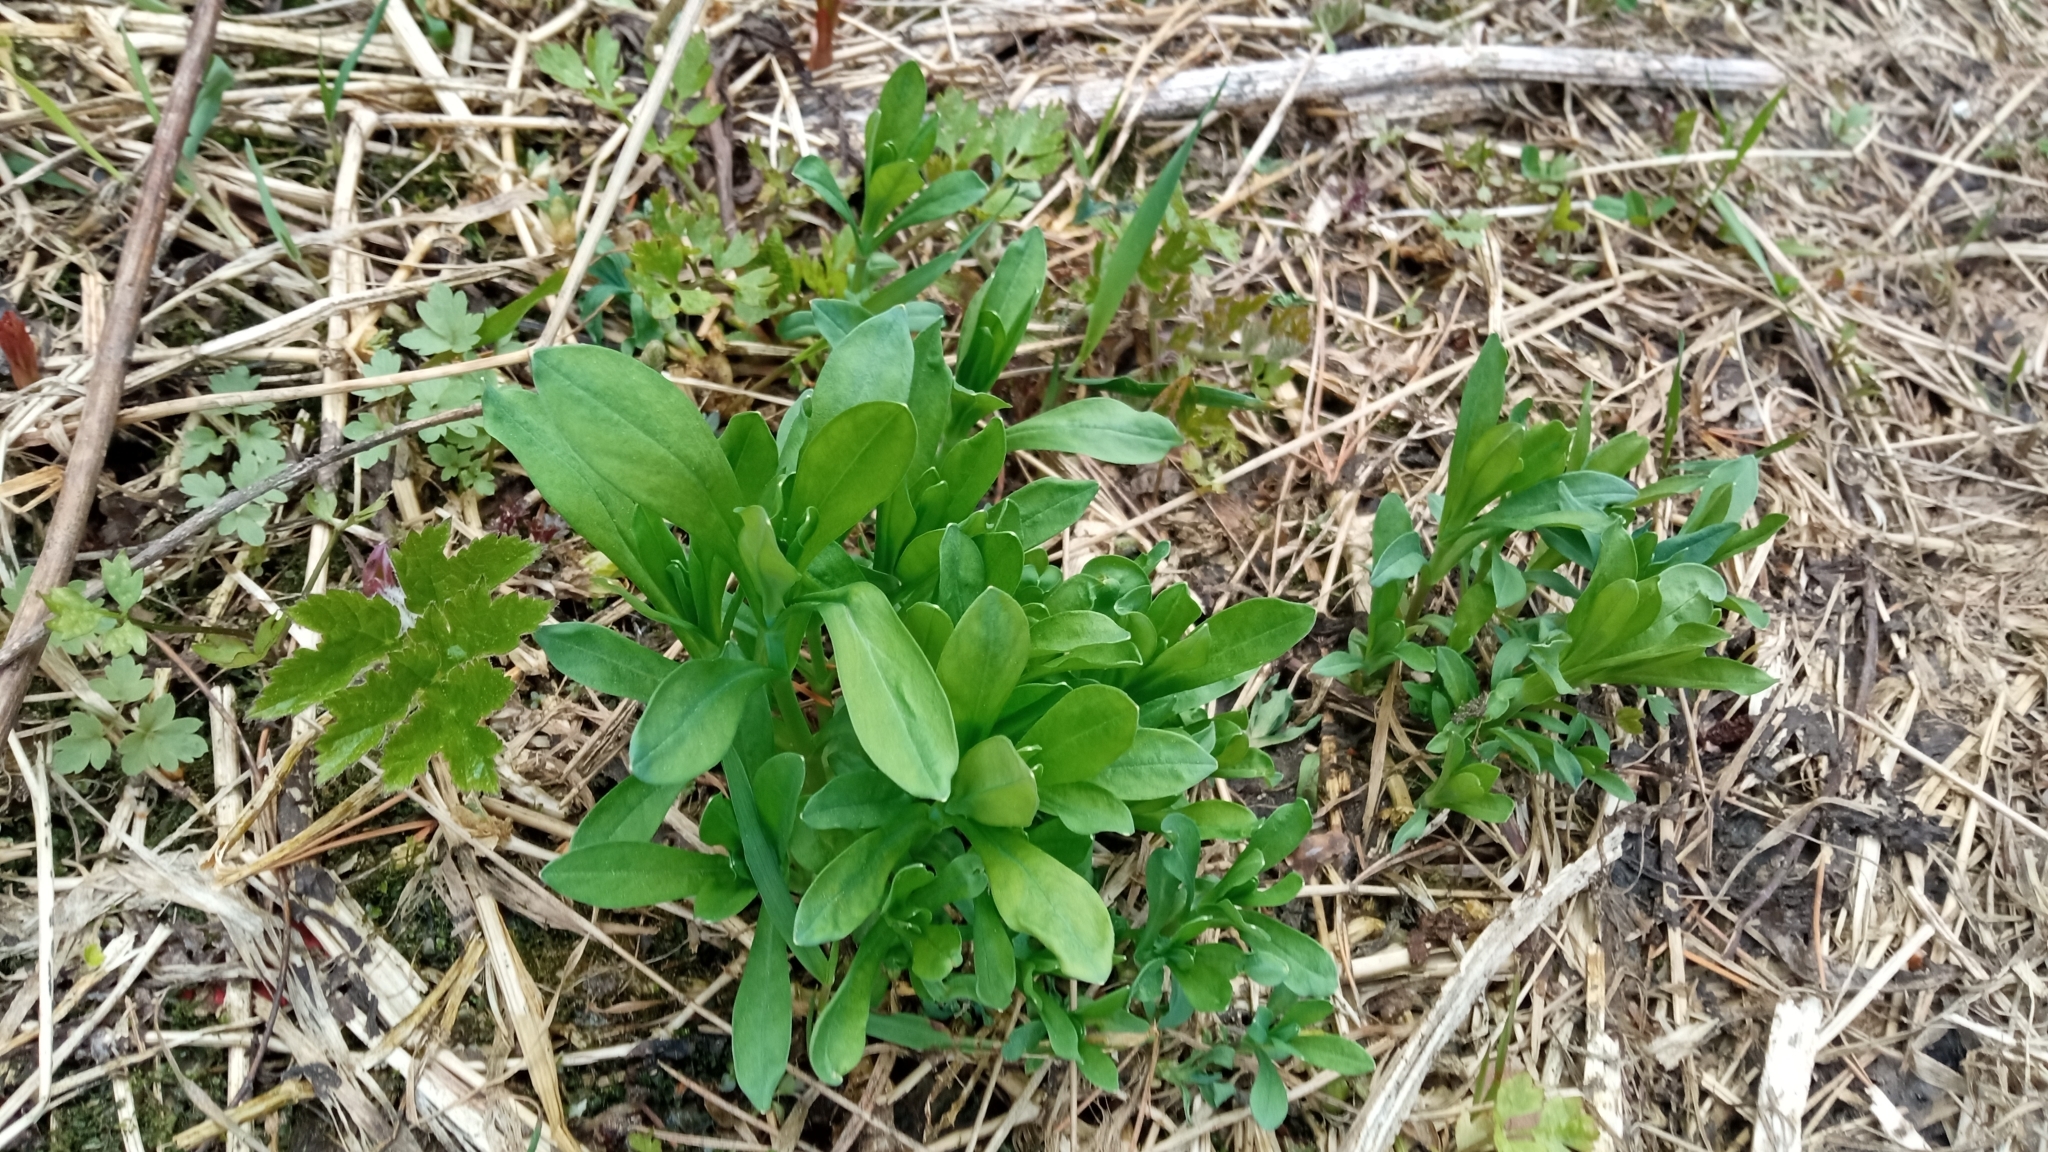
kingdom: Plantae
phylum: Tracheophyta
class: Magnoliopsida
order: Caryophyllales
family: Caryophyllaceae
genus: Cerastium
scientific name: Cerastium davuricum
